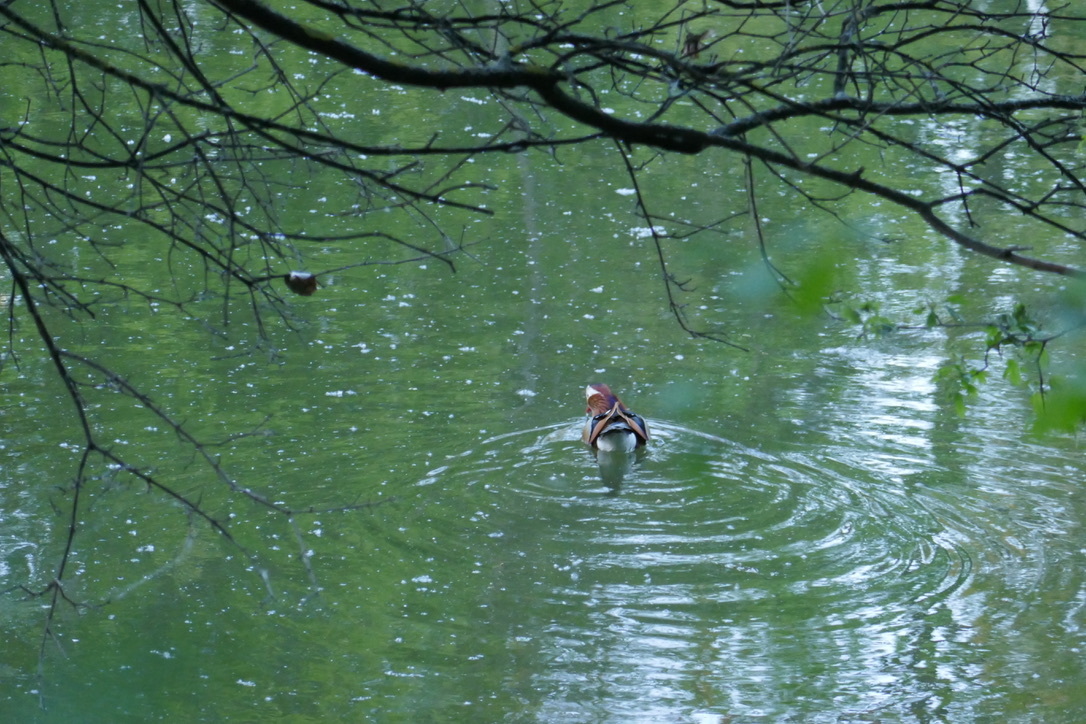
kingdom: Animalia
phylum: Chordata
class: Aves
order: Anseriformes
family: Anatidae
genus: Aix
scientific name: Aix galericulata
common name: Mandarin duck
